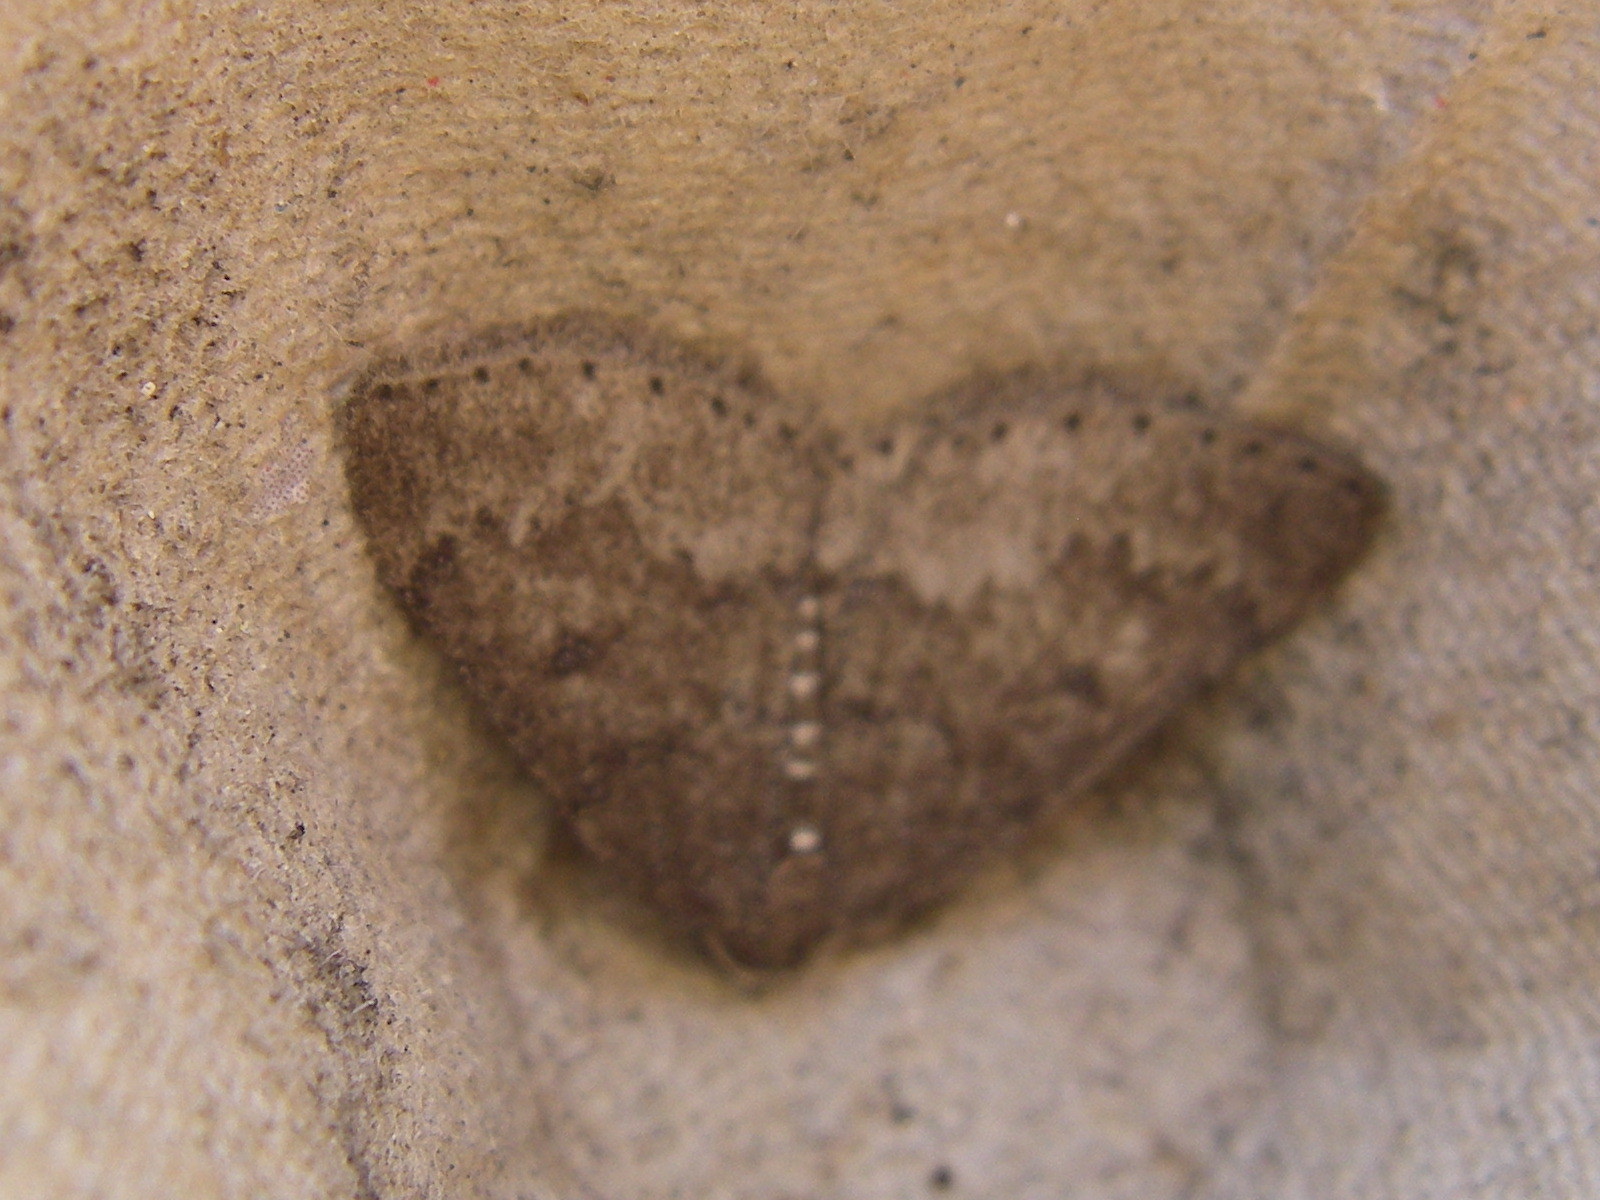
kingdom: Animalia
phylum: Arthropoda
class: Insecta
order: Lepidoptera
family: Geometridae
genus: Aleucis
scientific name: Aleucis distinctata
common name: Sloe carpet
